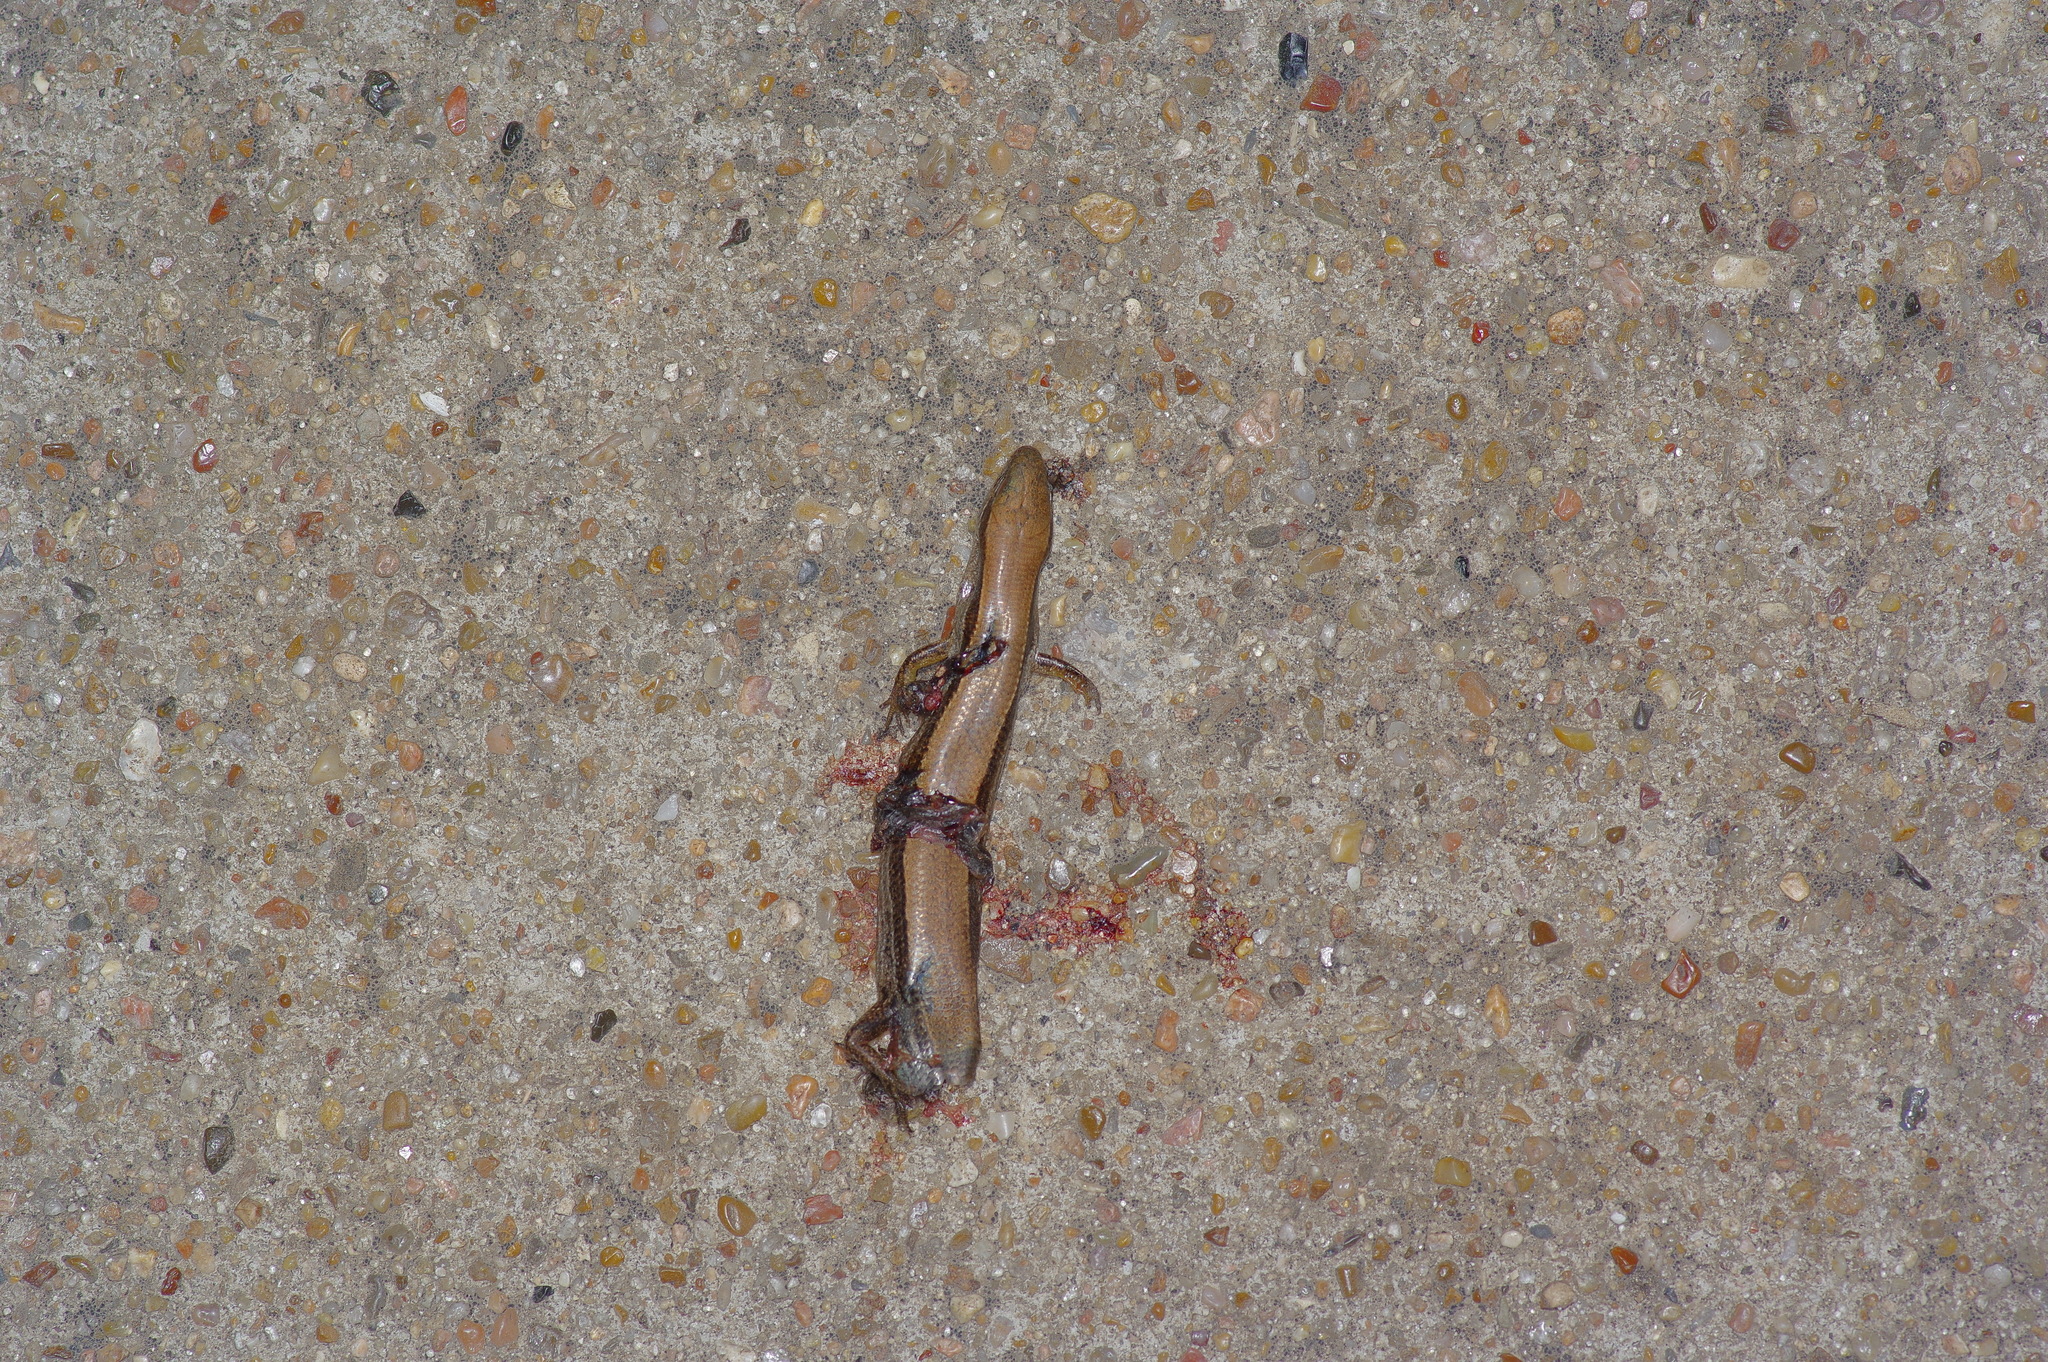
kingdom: Animalia
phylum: Chordata
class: Squamata
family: Scincidae
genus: Scincella
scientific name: Scincella lateralis
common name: Ground skink
